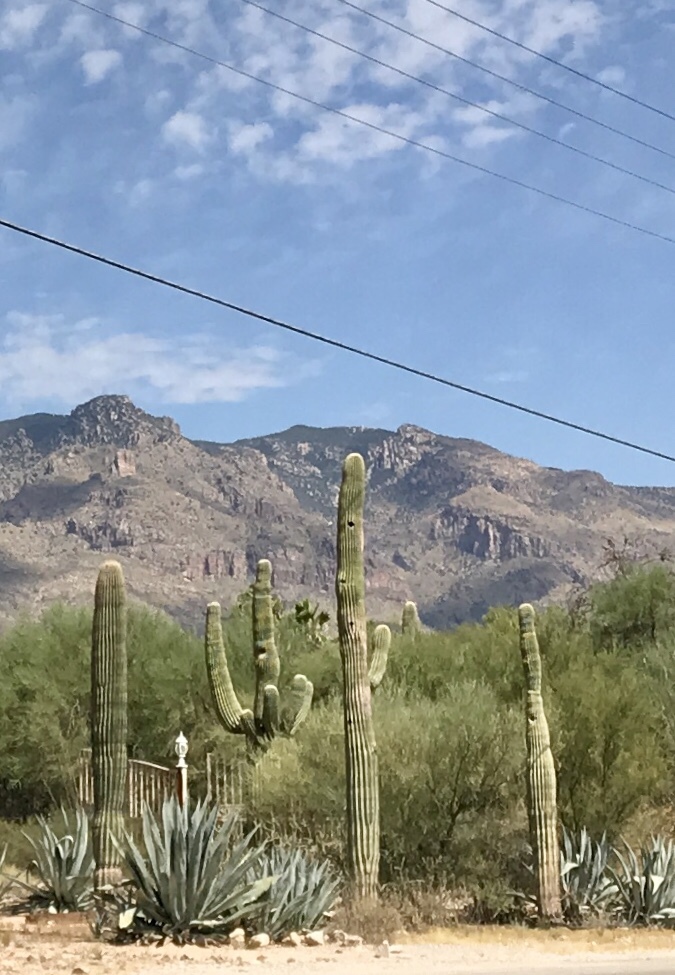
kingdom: Plantae
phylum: Tracheophyta
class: Magnoliopsida
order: Caryophyllales
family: Cactaceae
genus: Carnegiea
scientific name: Carnegiea gigantea
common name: Saguaro
